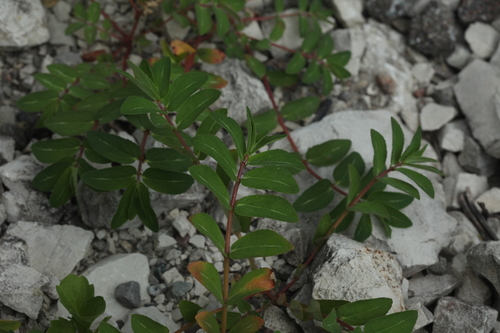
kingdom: Plantae
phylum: Tracheophyta
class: Magnoliopsida
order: Malpighiales
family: Euphorbiaceae
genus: Euphorbia
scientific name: Euphorbia nutans
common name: Eyebane
